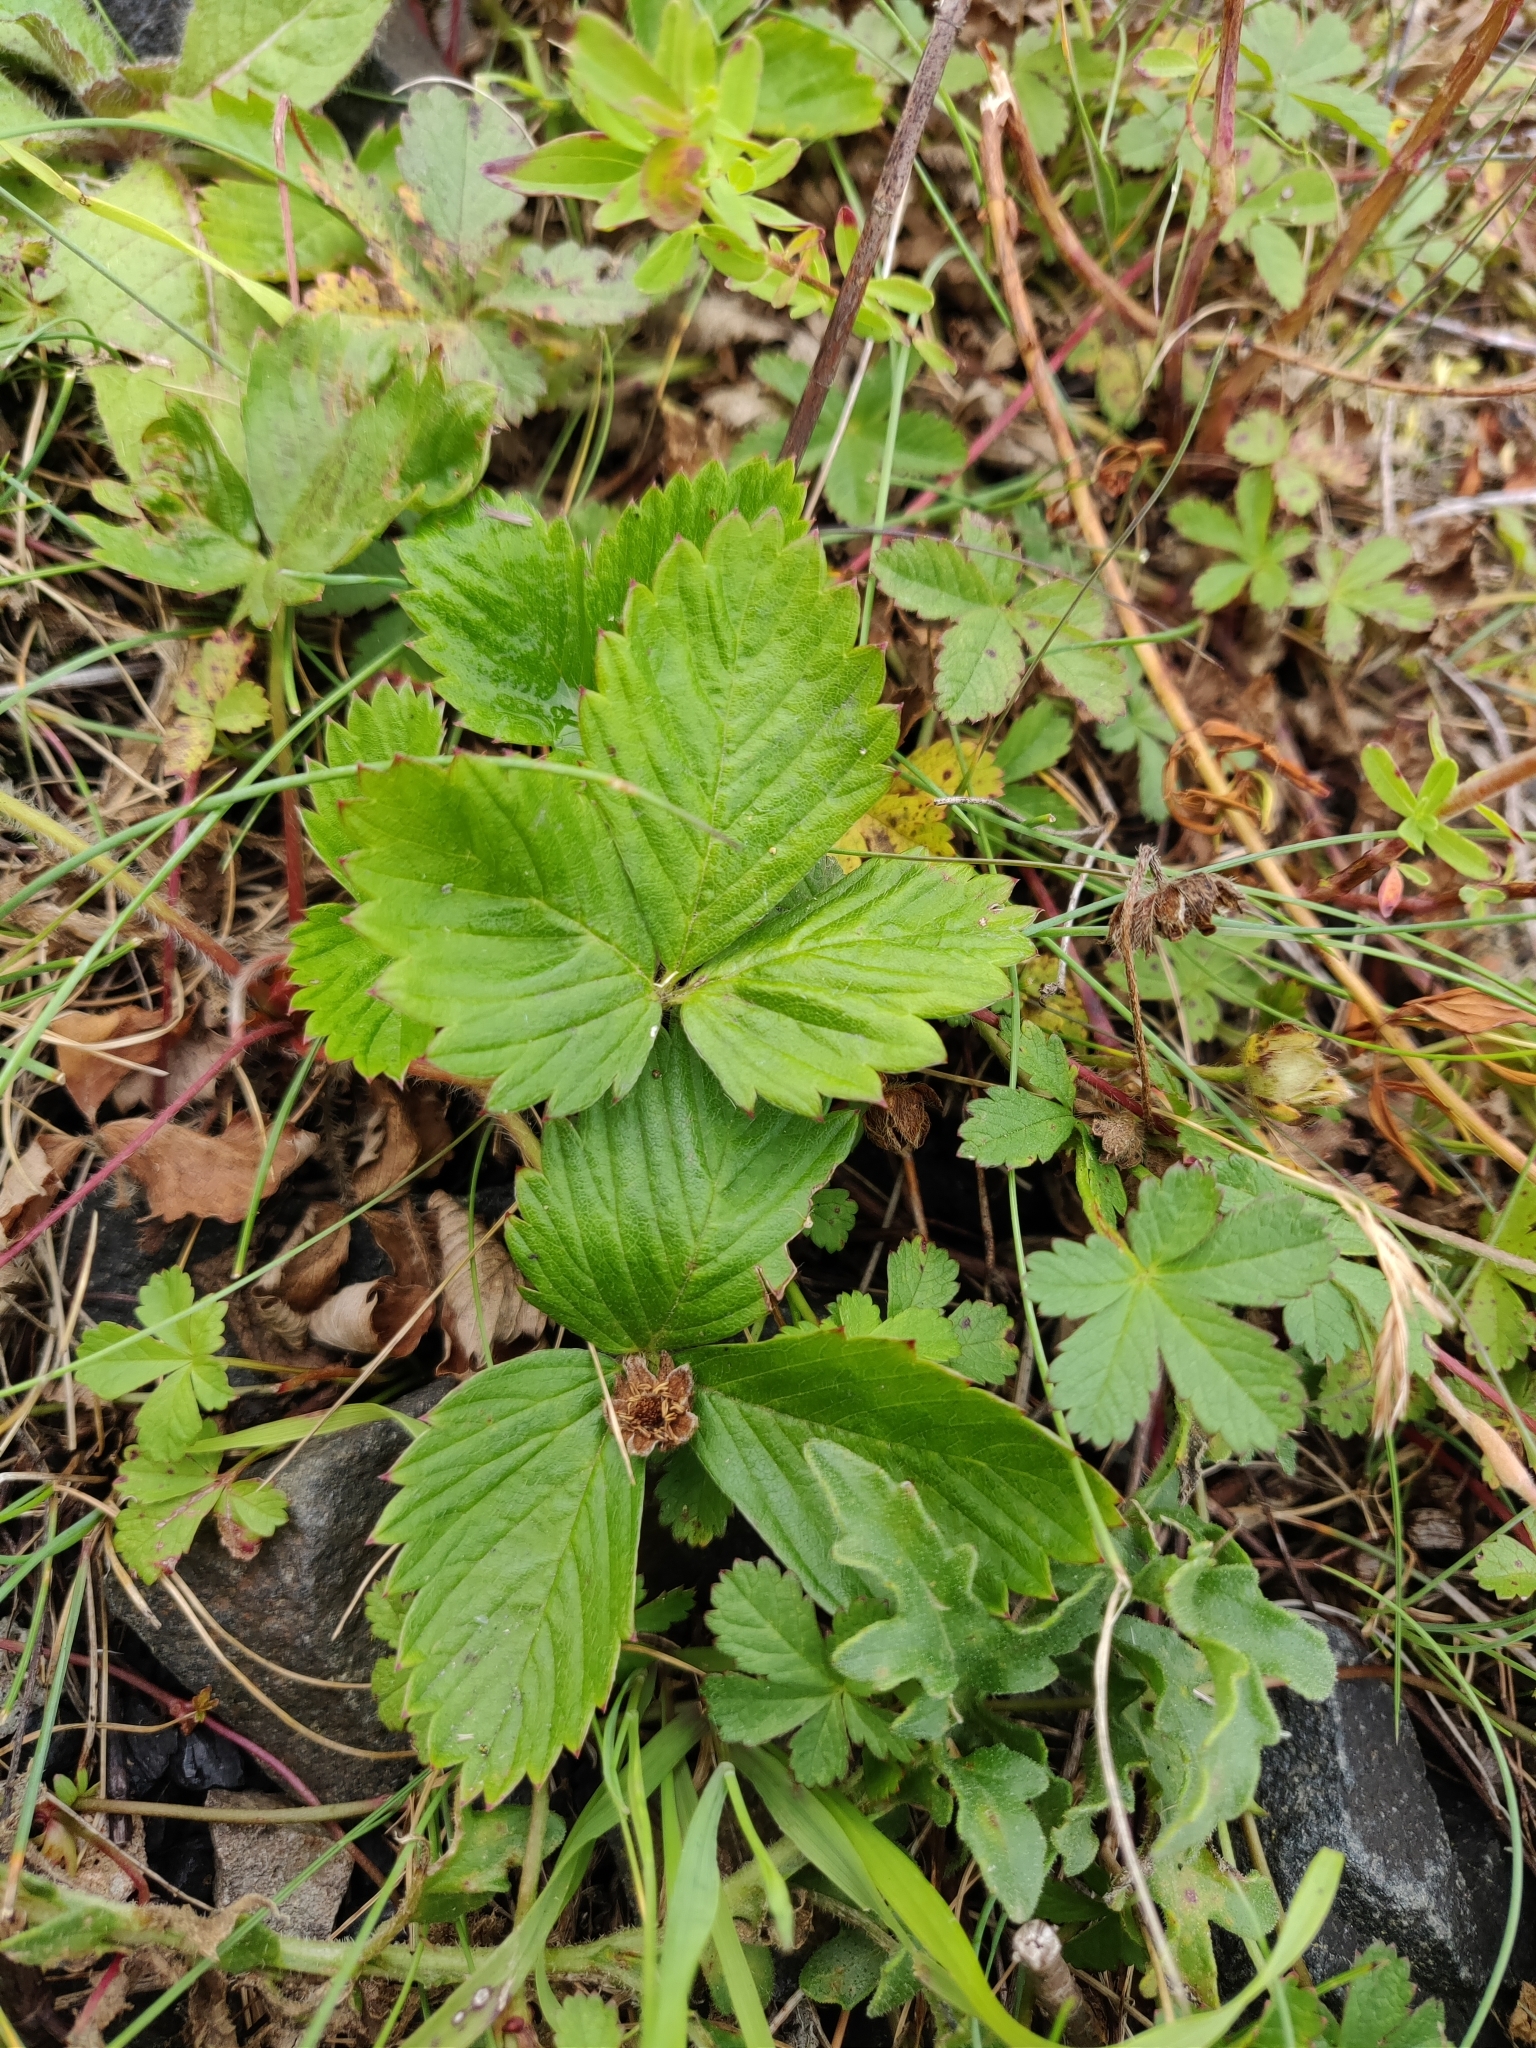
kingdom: Plantae
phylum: Tracheophyta
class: Magnoliopsida
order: Rosales
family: Rosaceae
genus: Fragaria
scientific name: Fragaria vesca
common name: Wild strawberry
